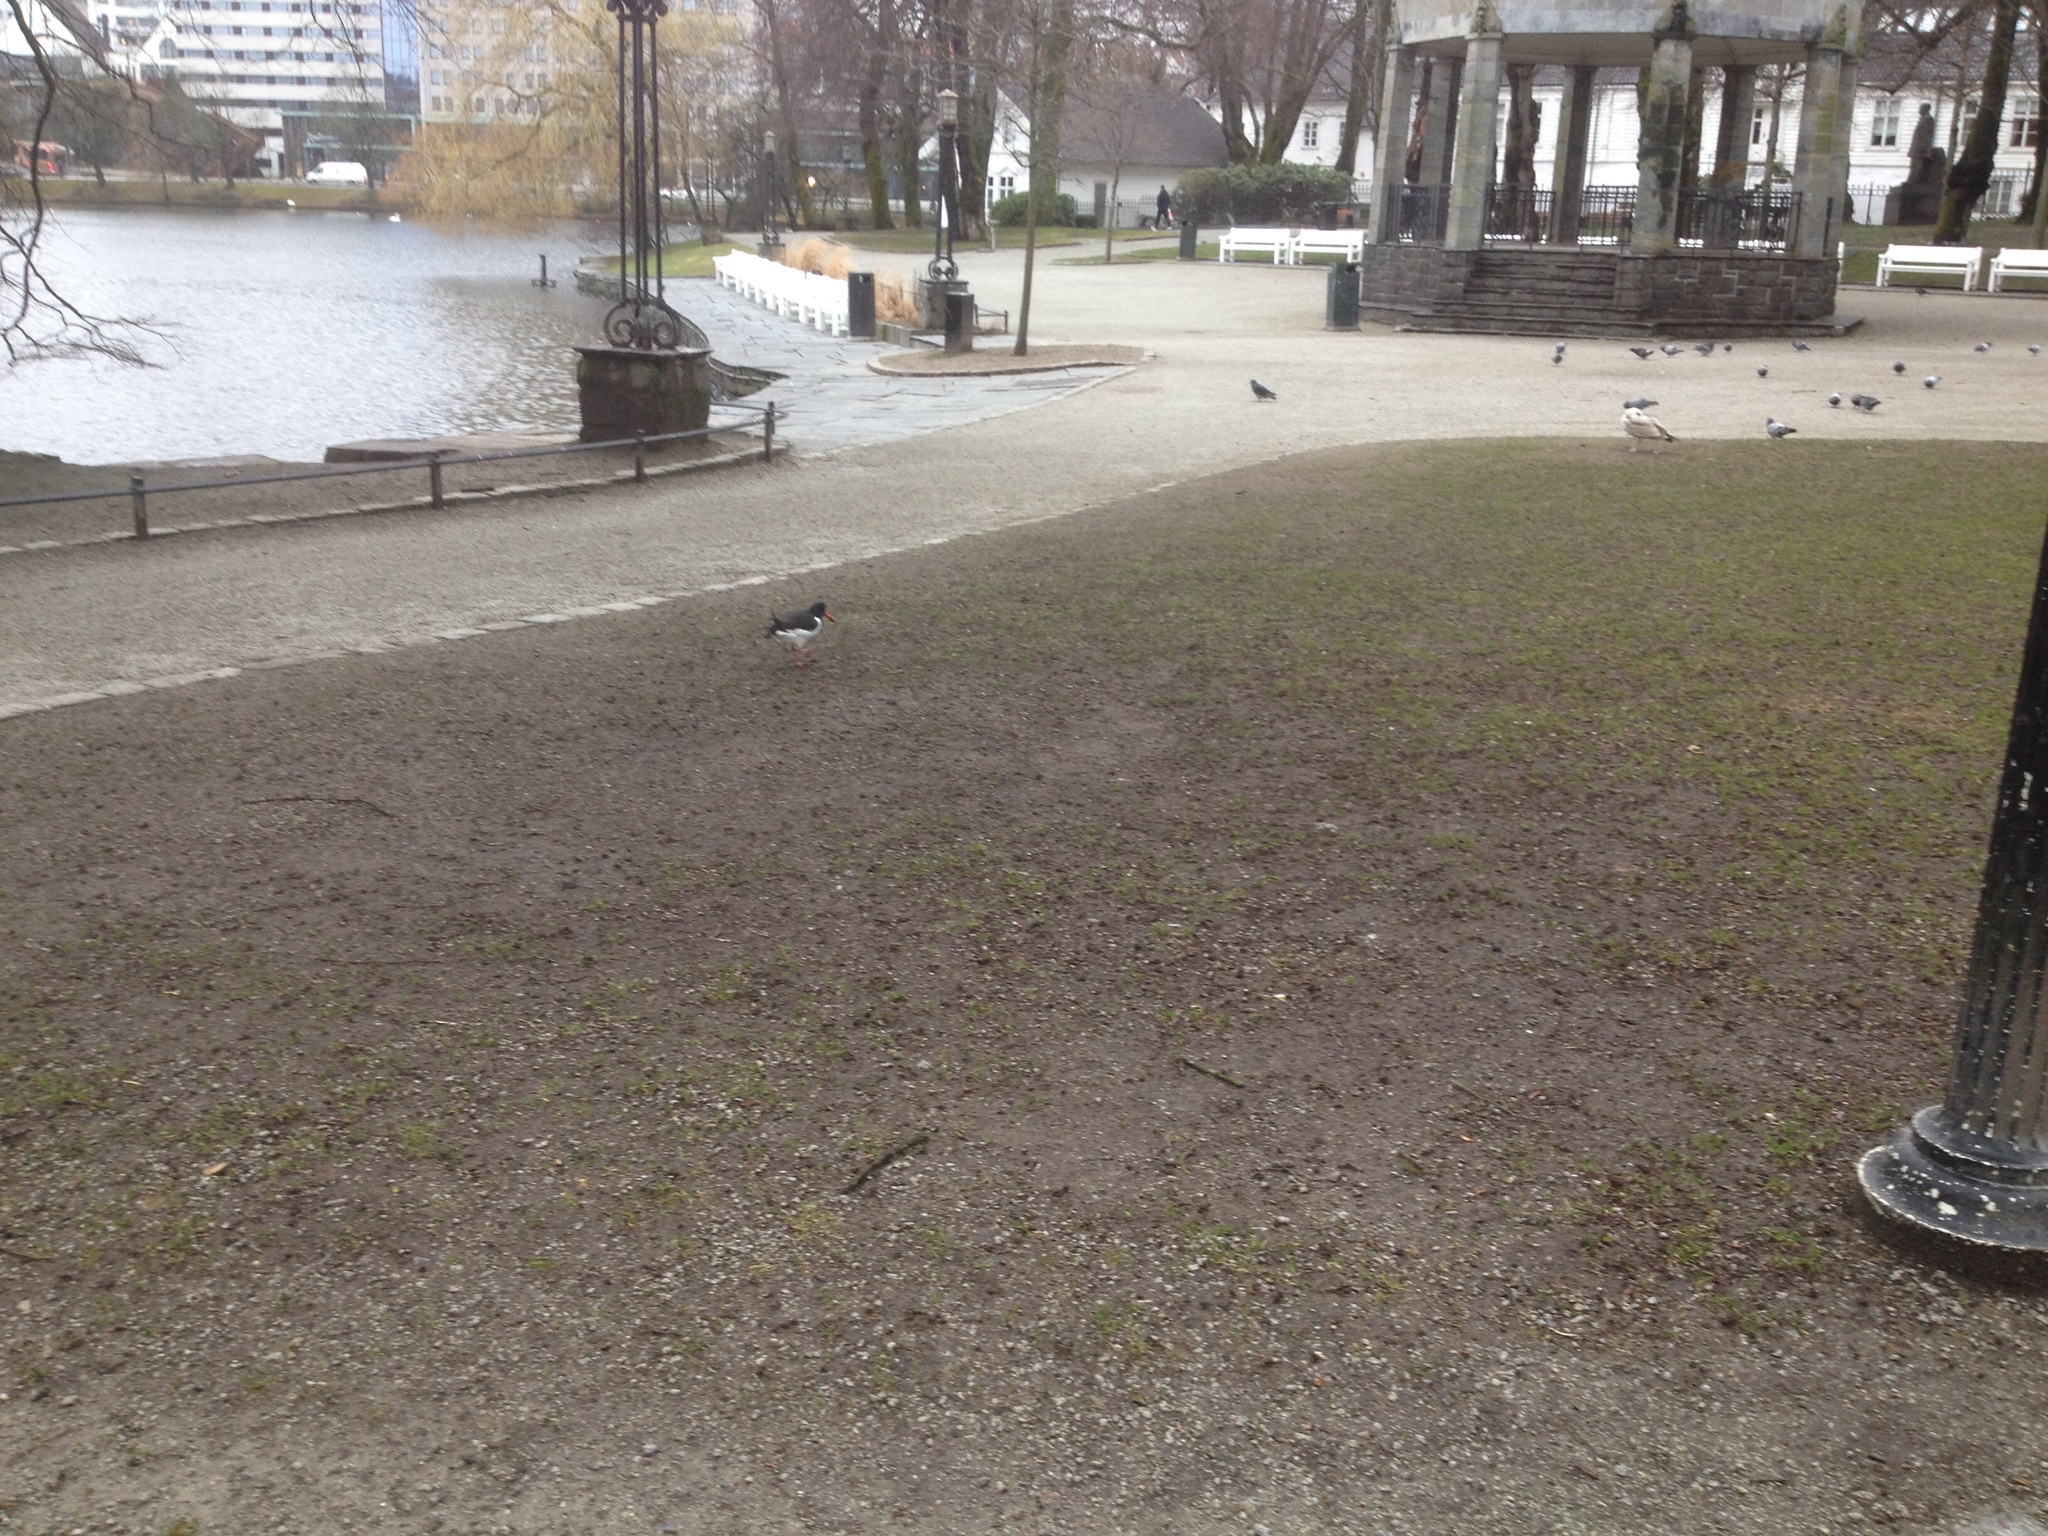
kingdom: Animalia
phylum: Chordata
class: Aves
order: Charadriiformes
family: Haematopodidae
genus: Haematopus
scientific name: Haematopus ostralegus
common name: Eurasian oystercatcher
